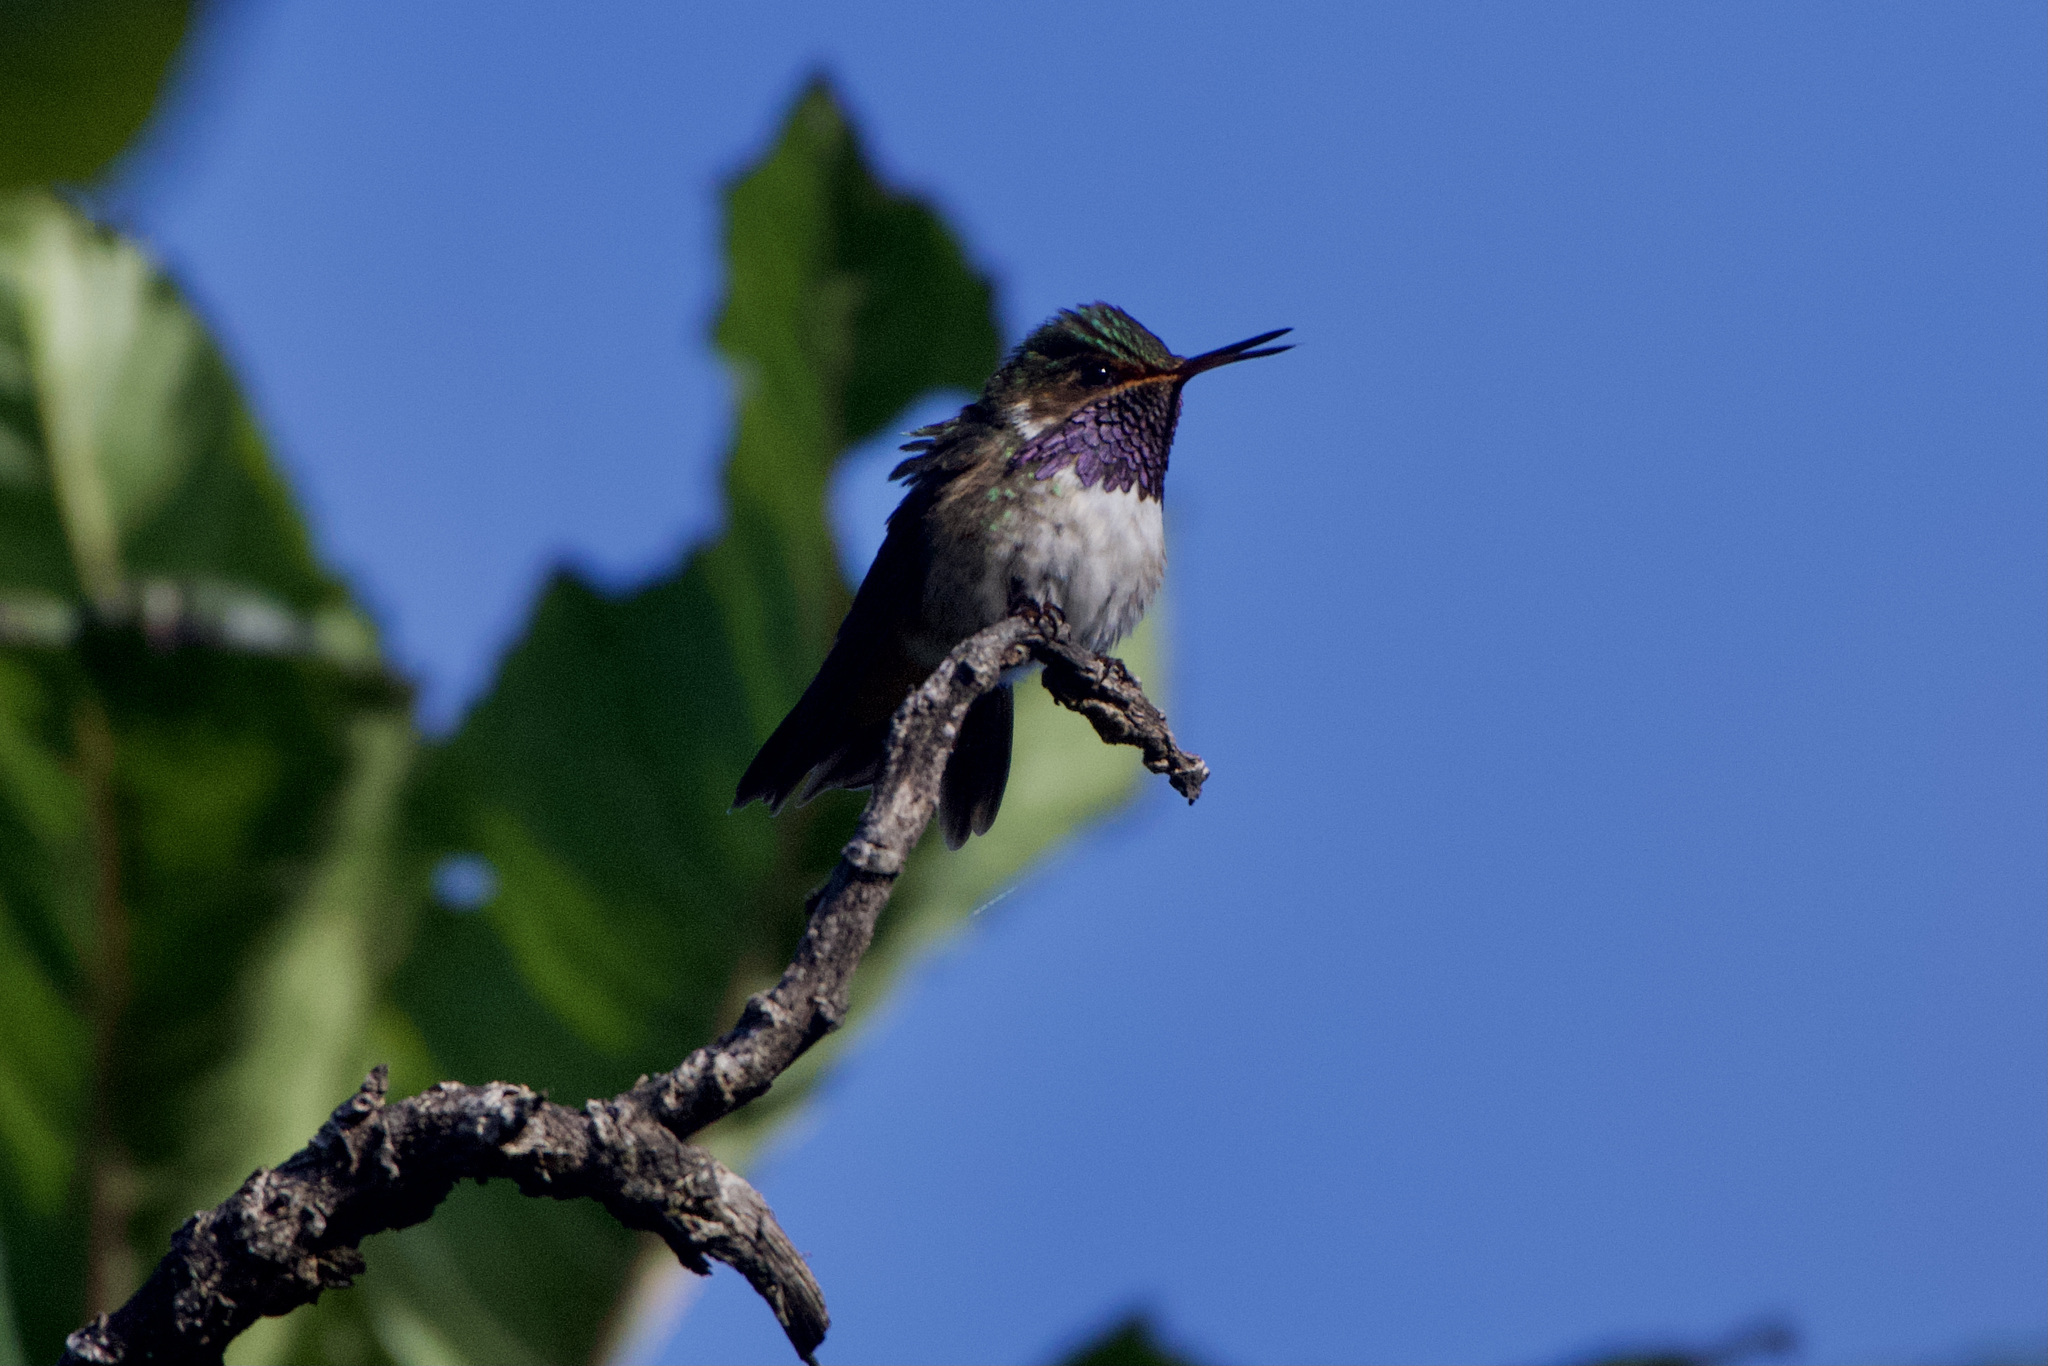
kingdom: Animalia
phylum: Chordata
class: Aves
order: Apodiformes
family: Trochilidae
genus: Selasphorus
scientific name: Selasphorus flammula
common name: Volcano hummingbird
